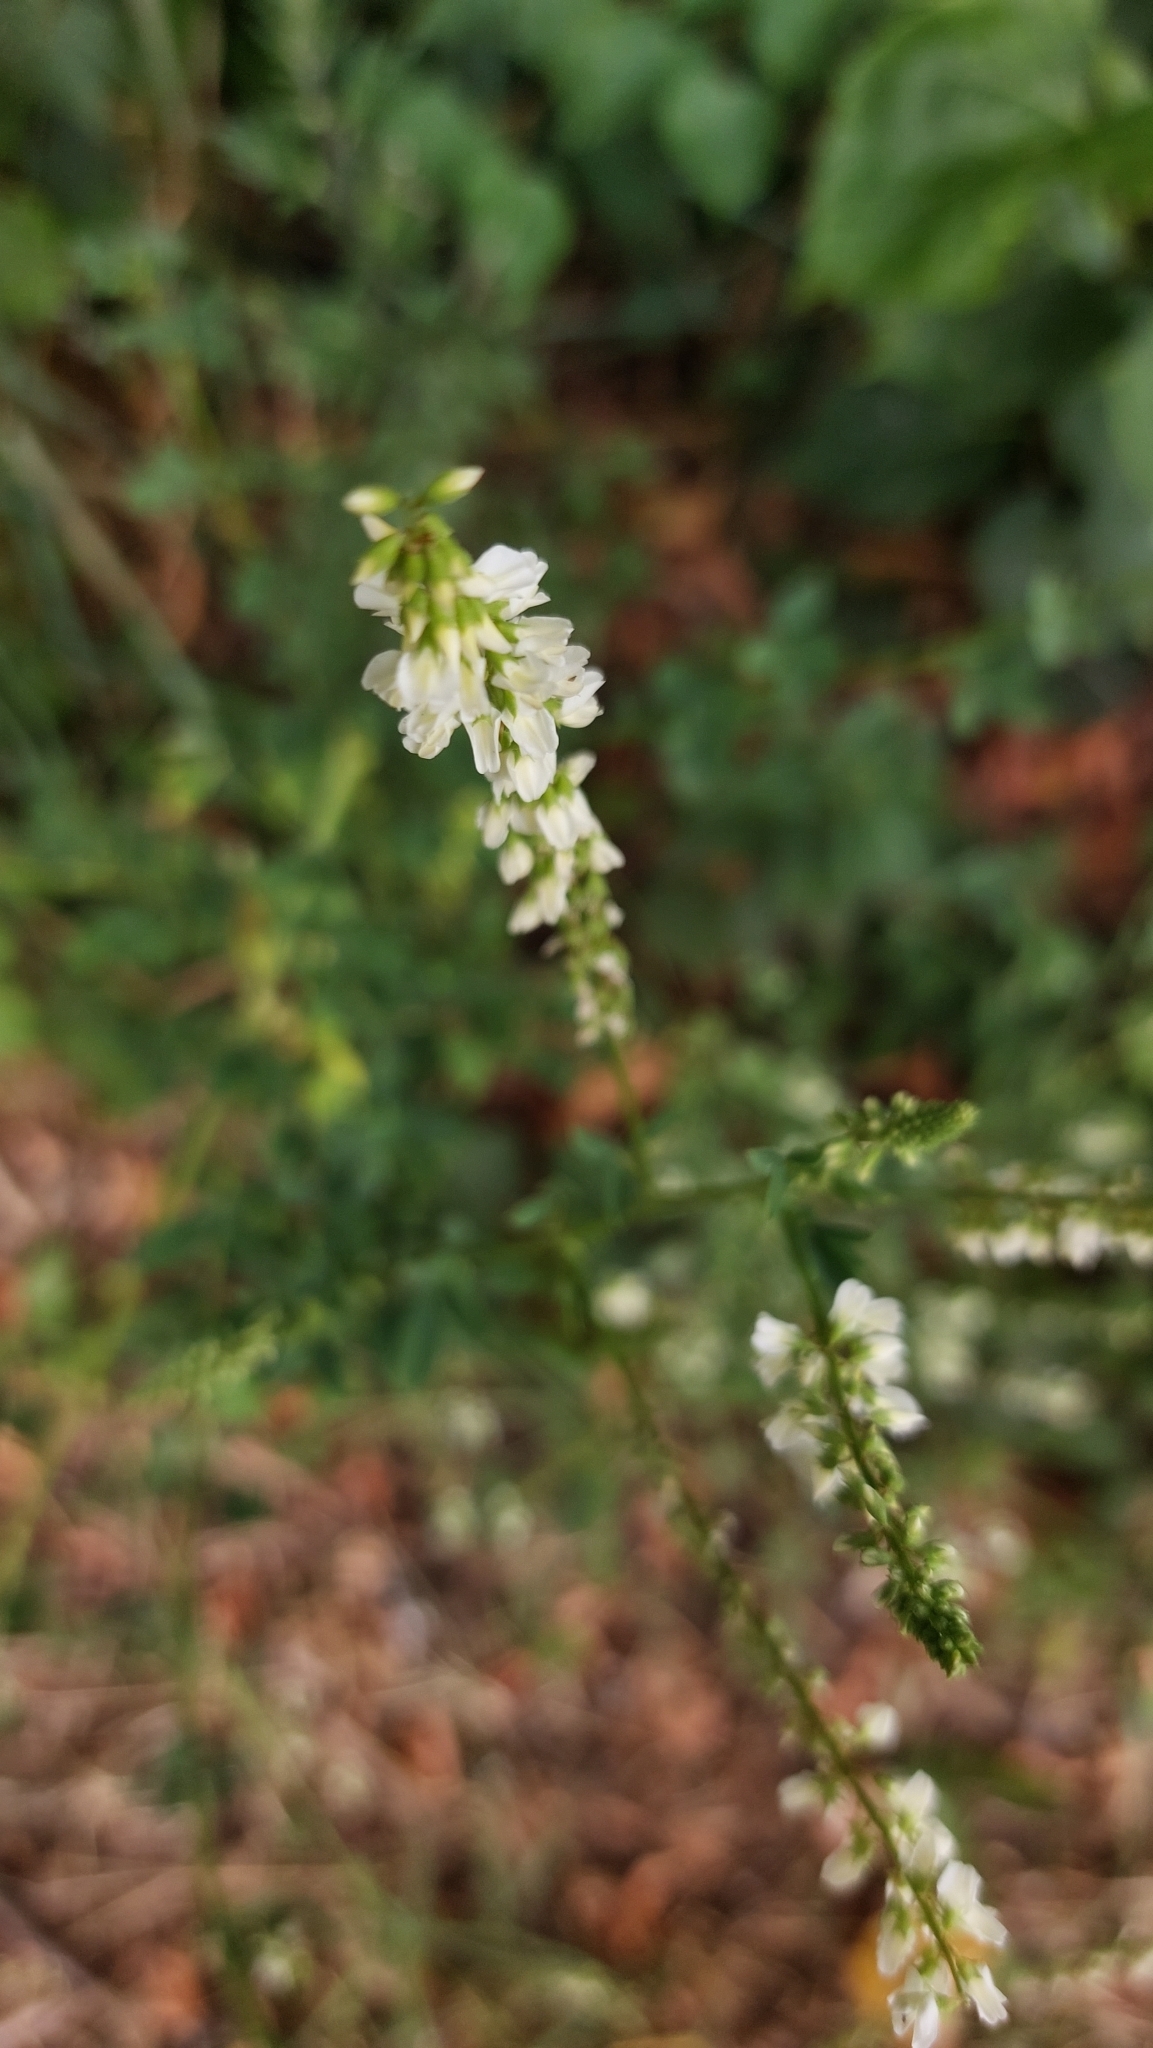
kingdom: Plantae
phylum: Tracheophyta
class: Magnoliopsida
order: Fabales
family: Fabaceae
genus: Melilotus
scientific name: Melilotus albus
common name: White melilot
